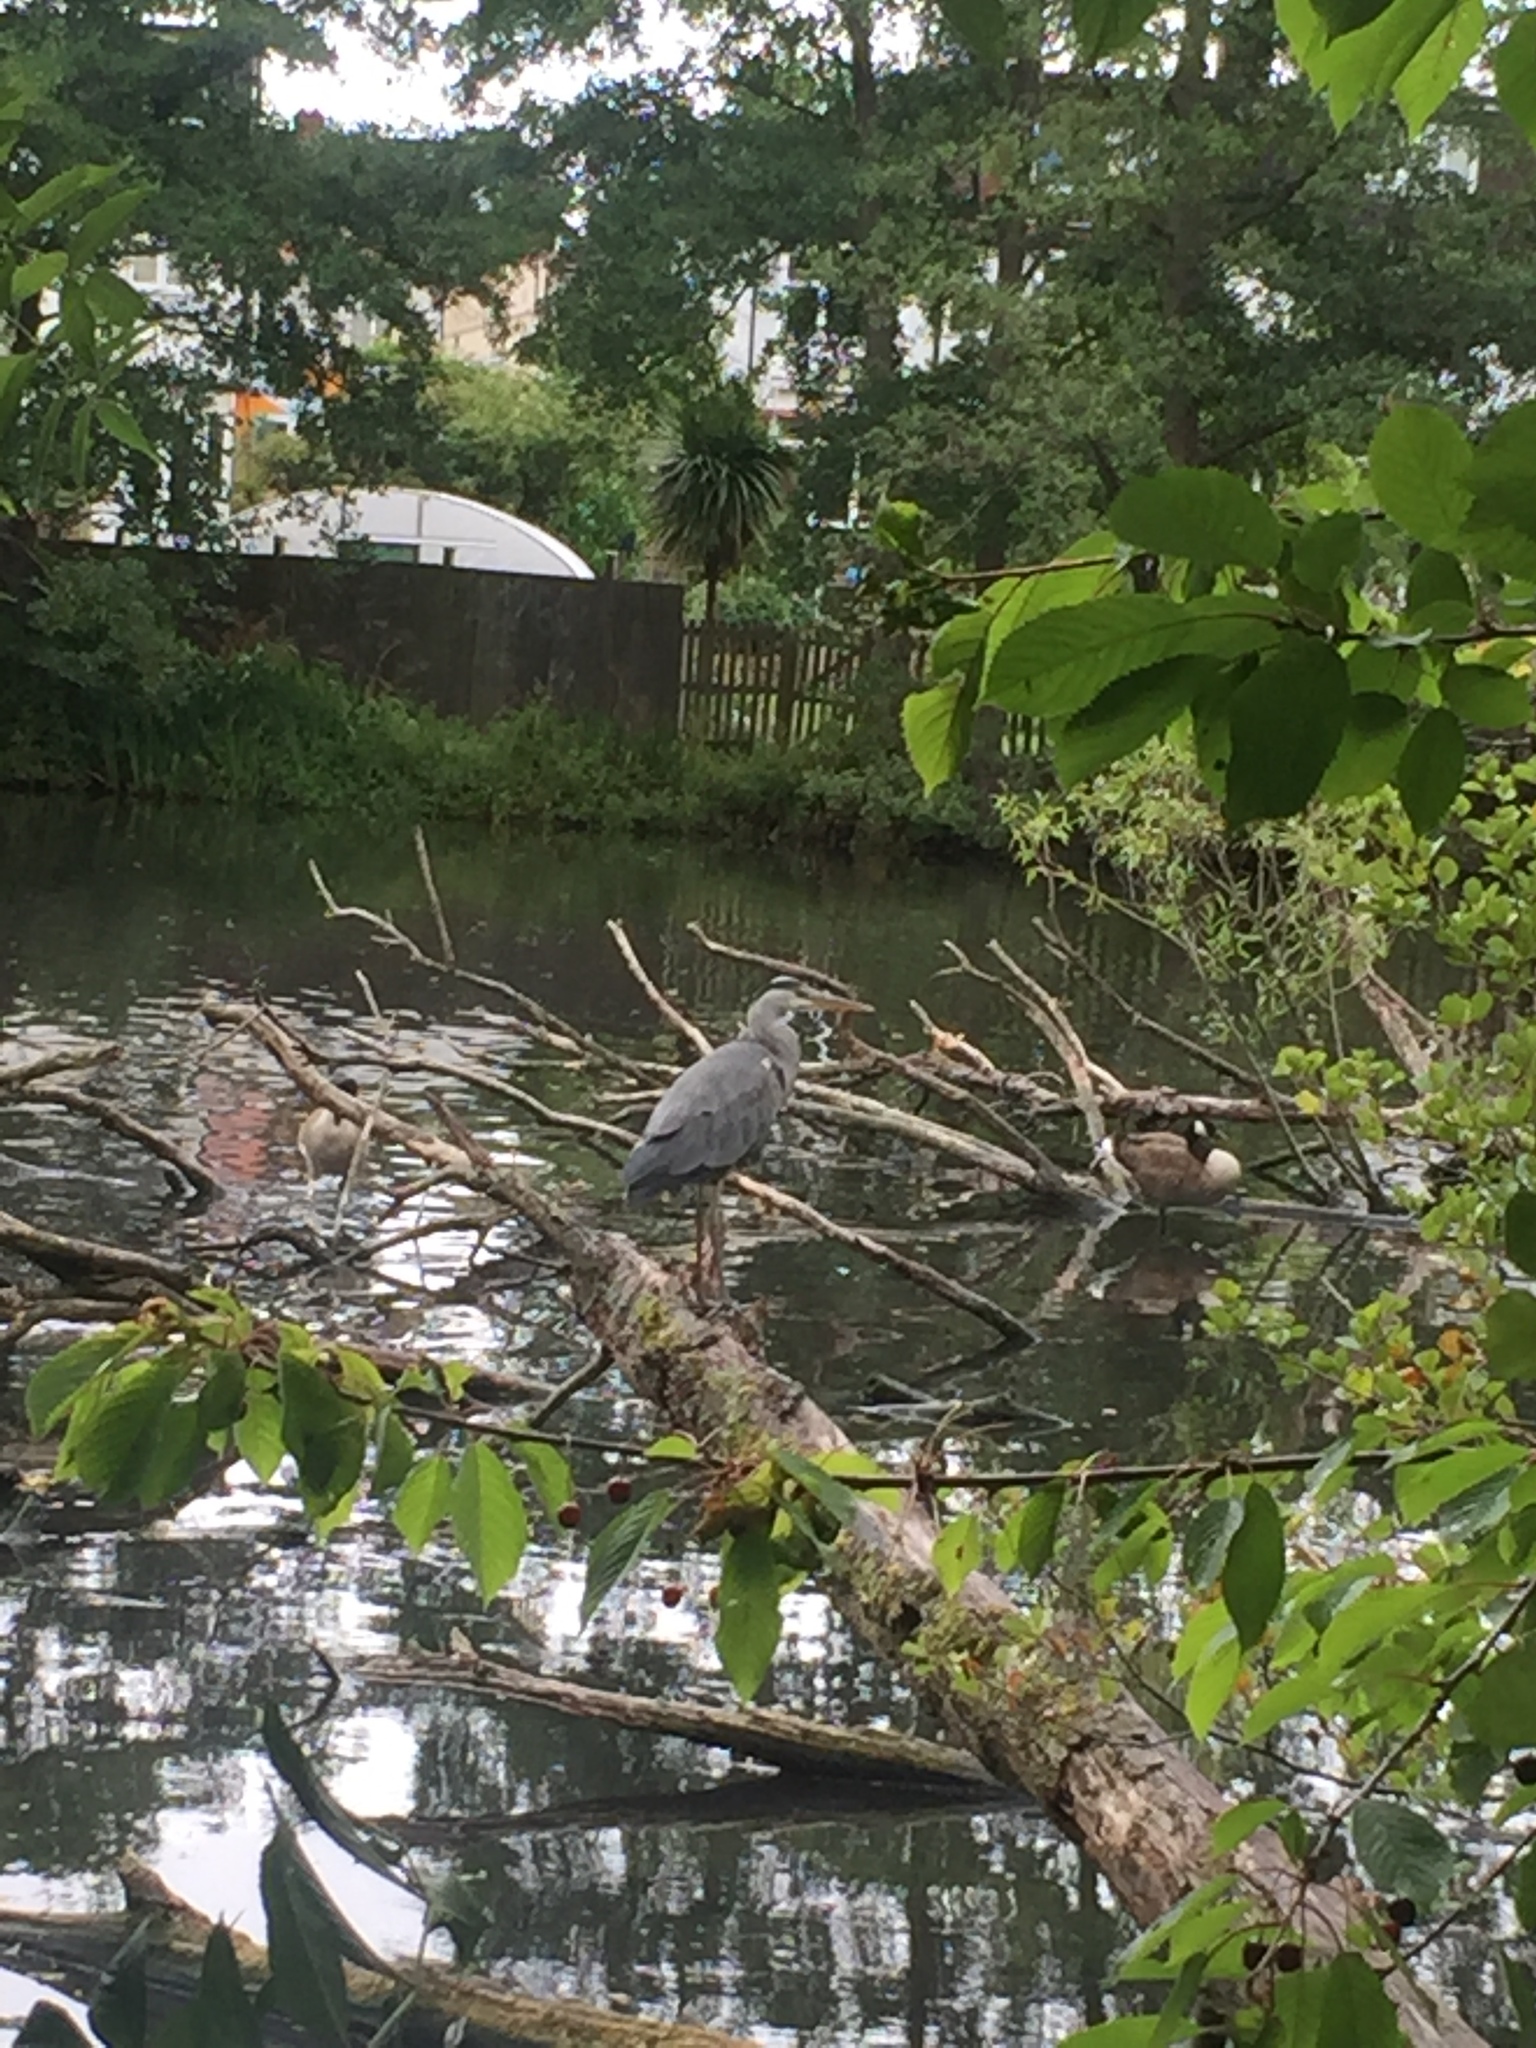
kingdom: Animalia
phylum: Chordata
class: Aves
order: Pelecaniformes
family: Ardeidae
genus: Ardea
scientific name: Ardea cinerea
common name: Grey heron
